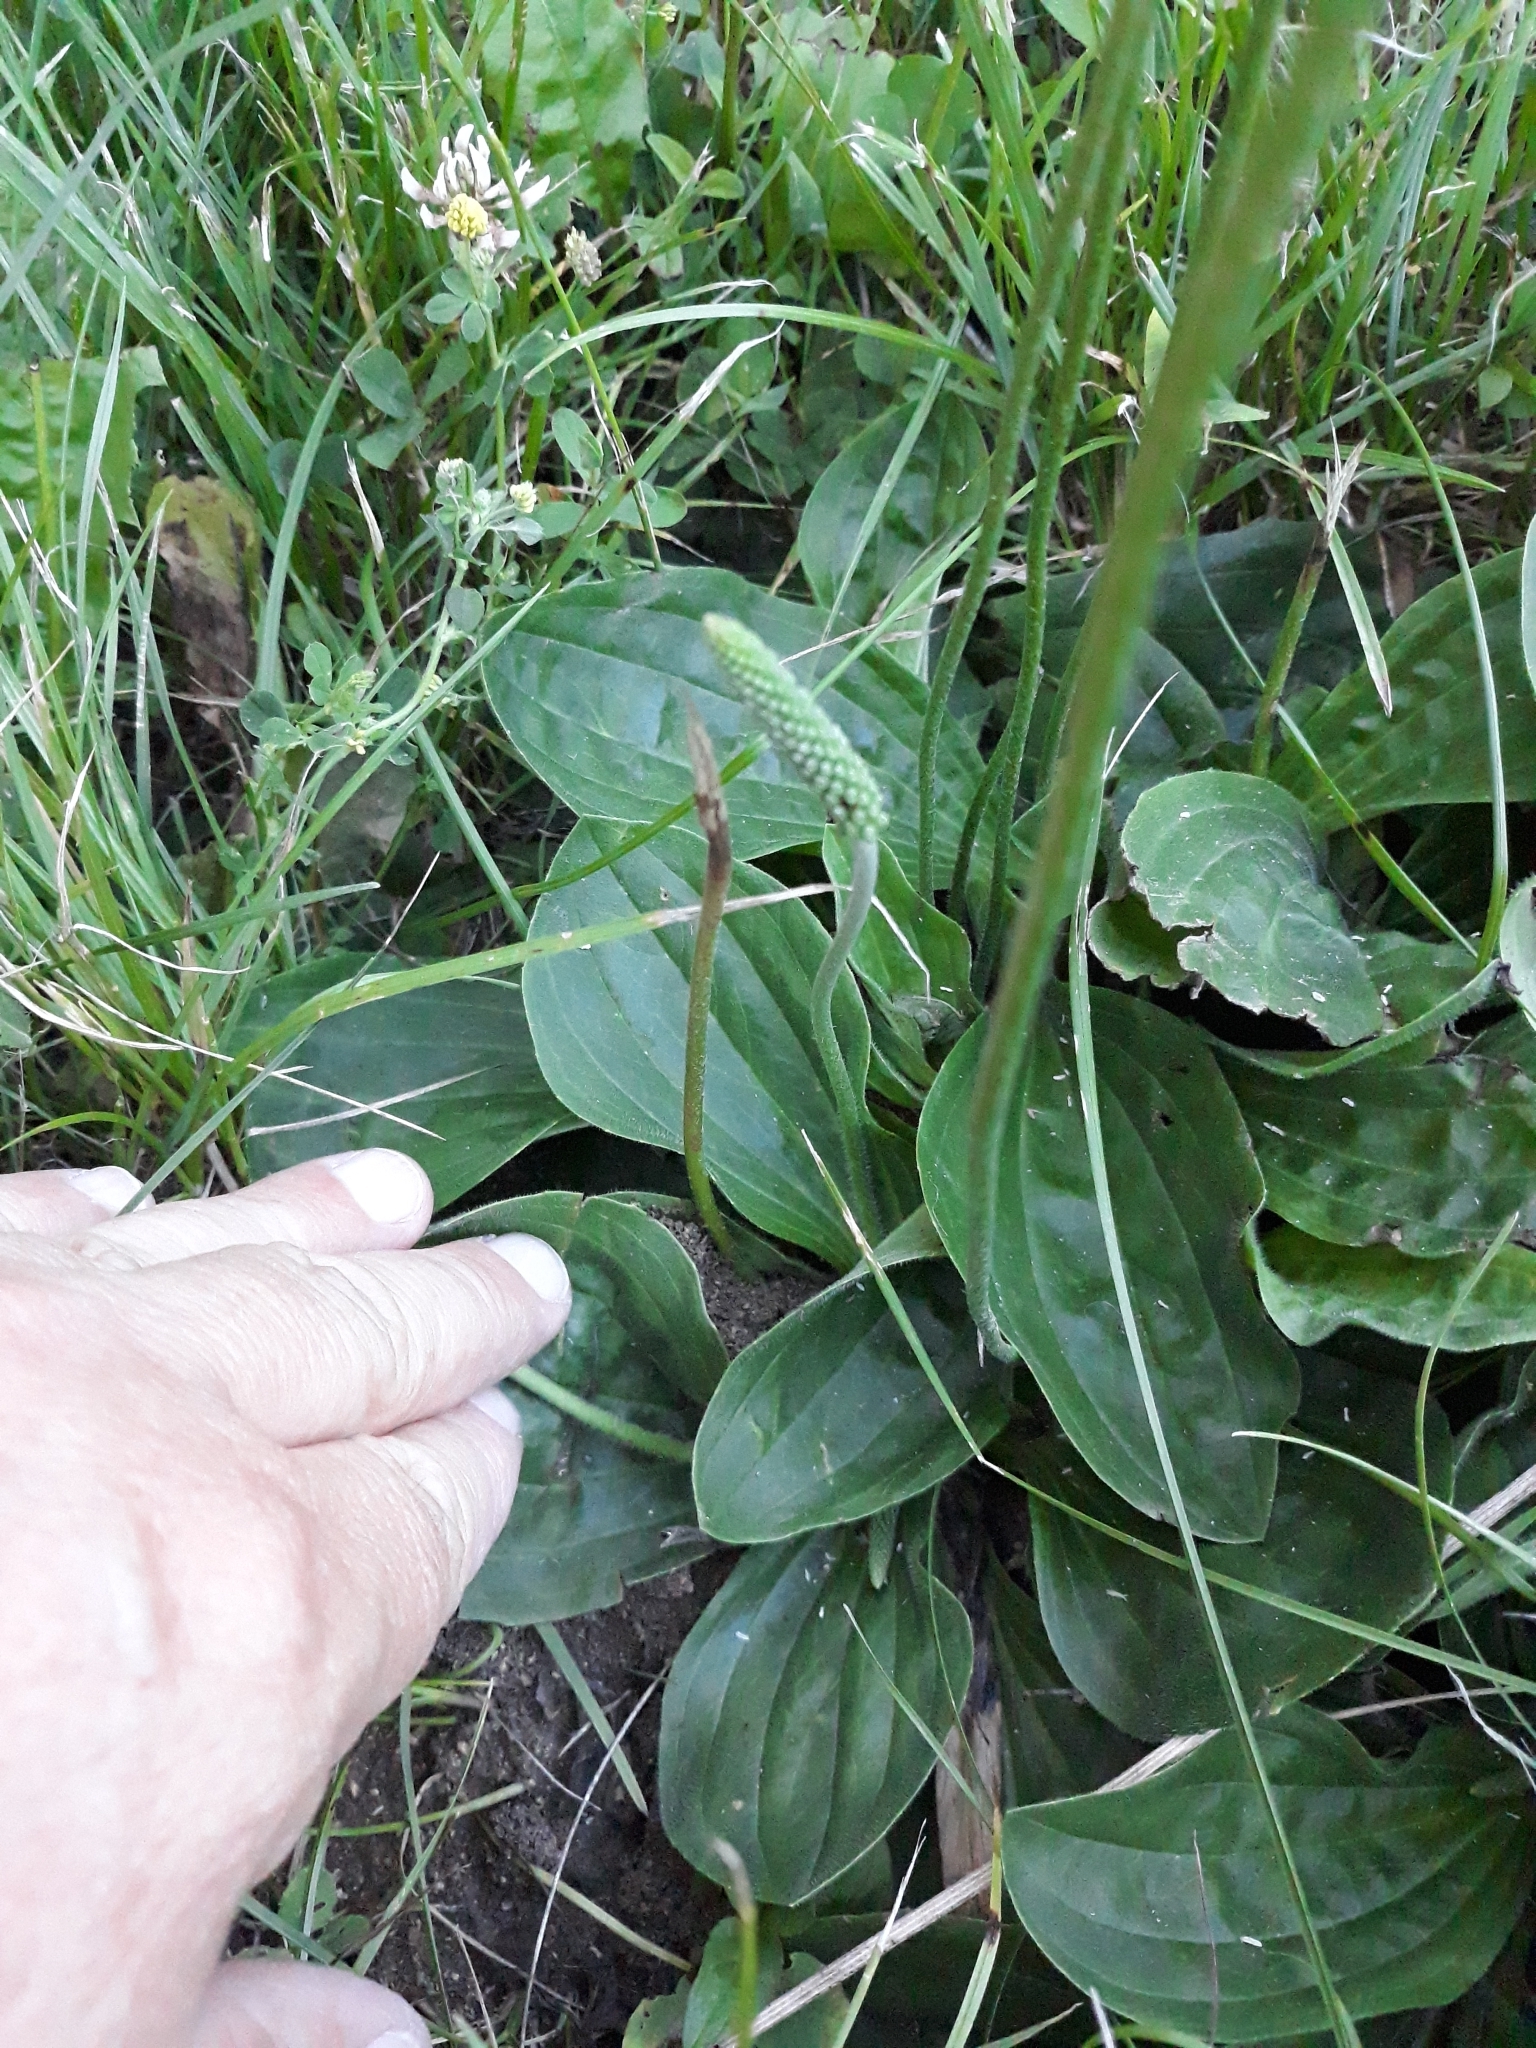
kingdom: Plantae
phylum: Tracheophyta
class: Magnoliopsida
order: Lamiales
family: Plantaginaceae
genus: Plantago
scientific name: Plantago media
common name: Hoary plantain
